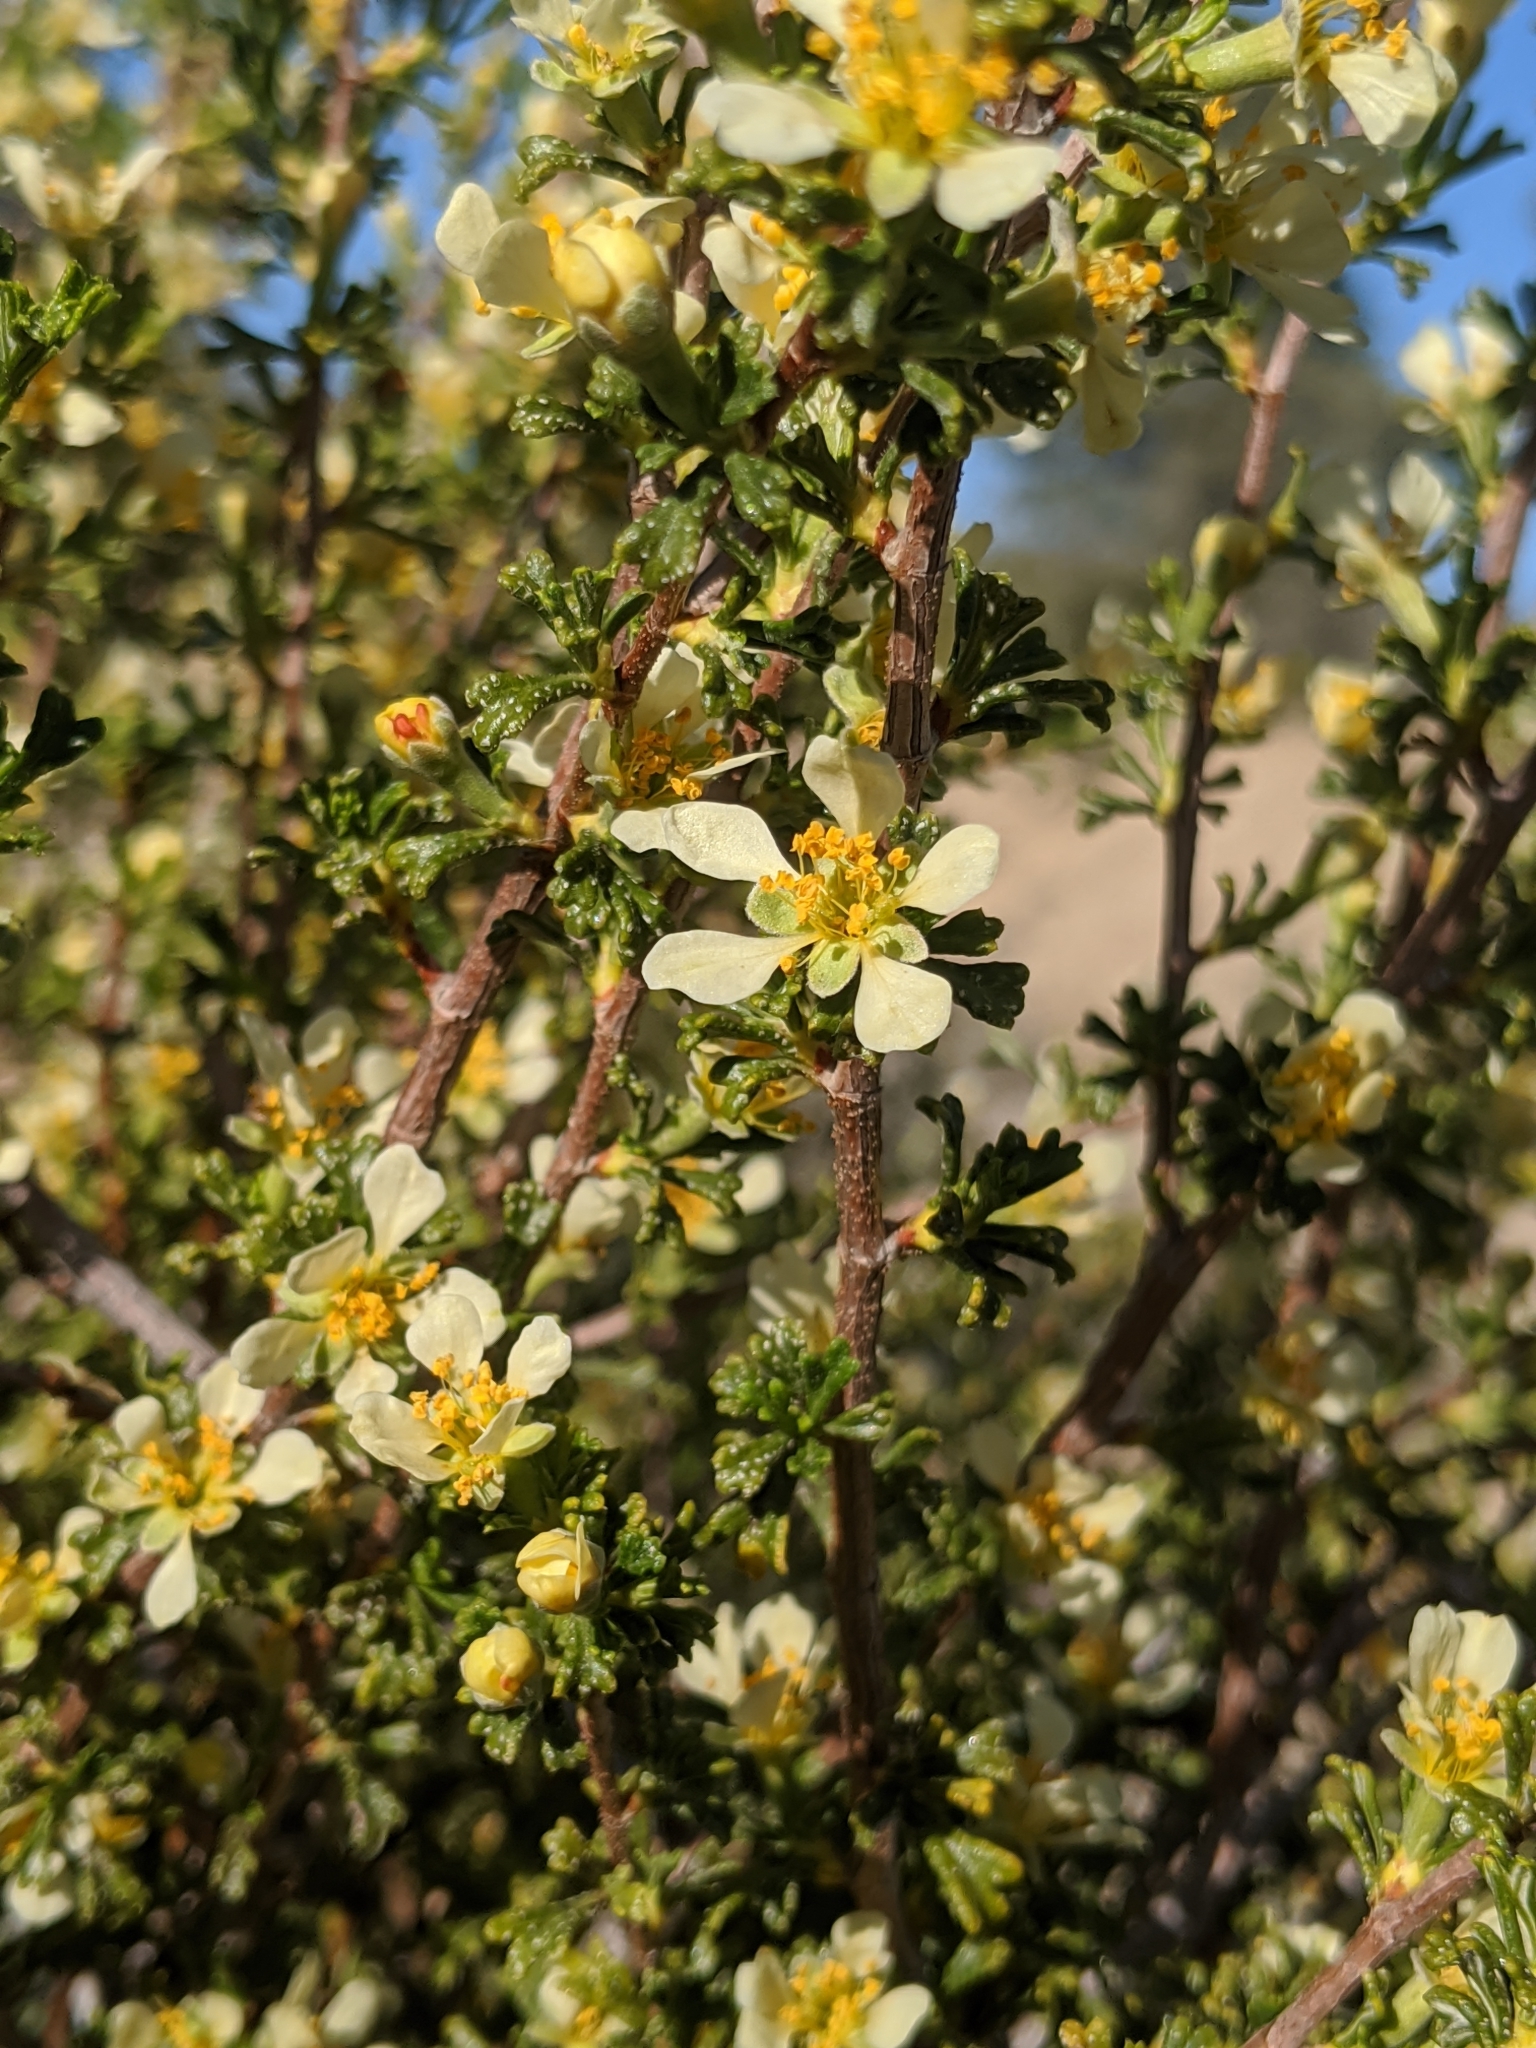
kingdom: Plantae
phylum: Tracheophyta
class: Magnoliopsida
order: Rosales
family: Rosaceae
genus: Purshia
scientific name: Purshia glandulosa
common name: Desert bitterbrush
